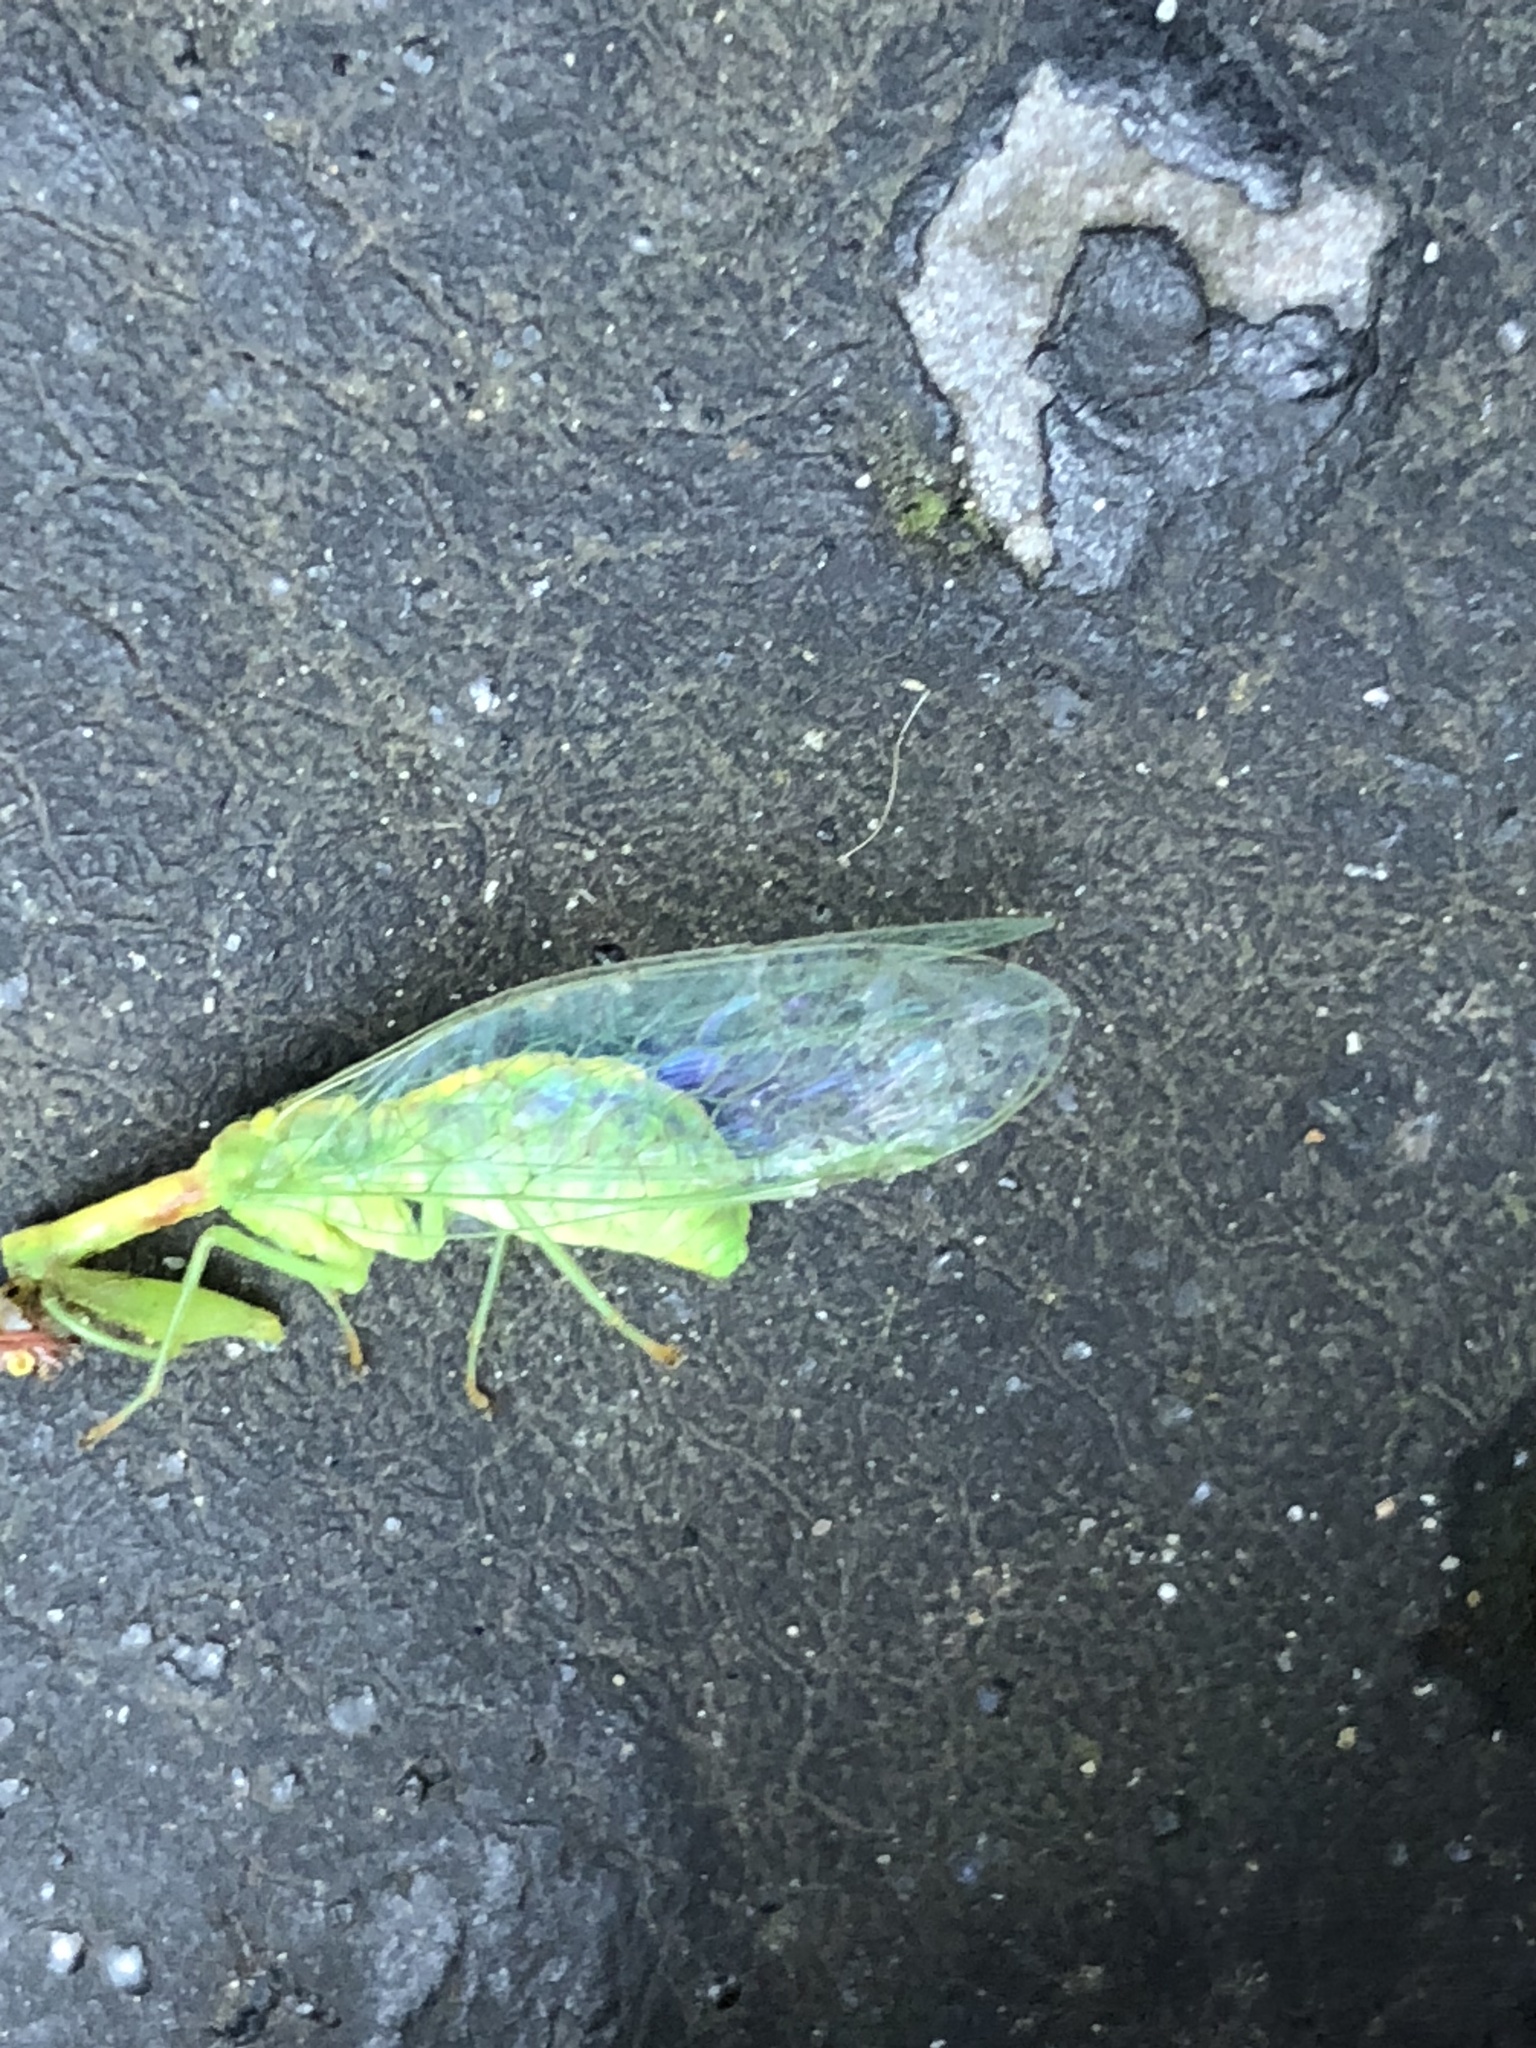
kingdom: Animalia
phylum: Arthropoda
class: Insecta
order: Neuroptera
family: Mantispidae
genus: Zeugomantispa
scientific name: Zeugomantispa minuta
